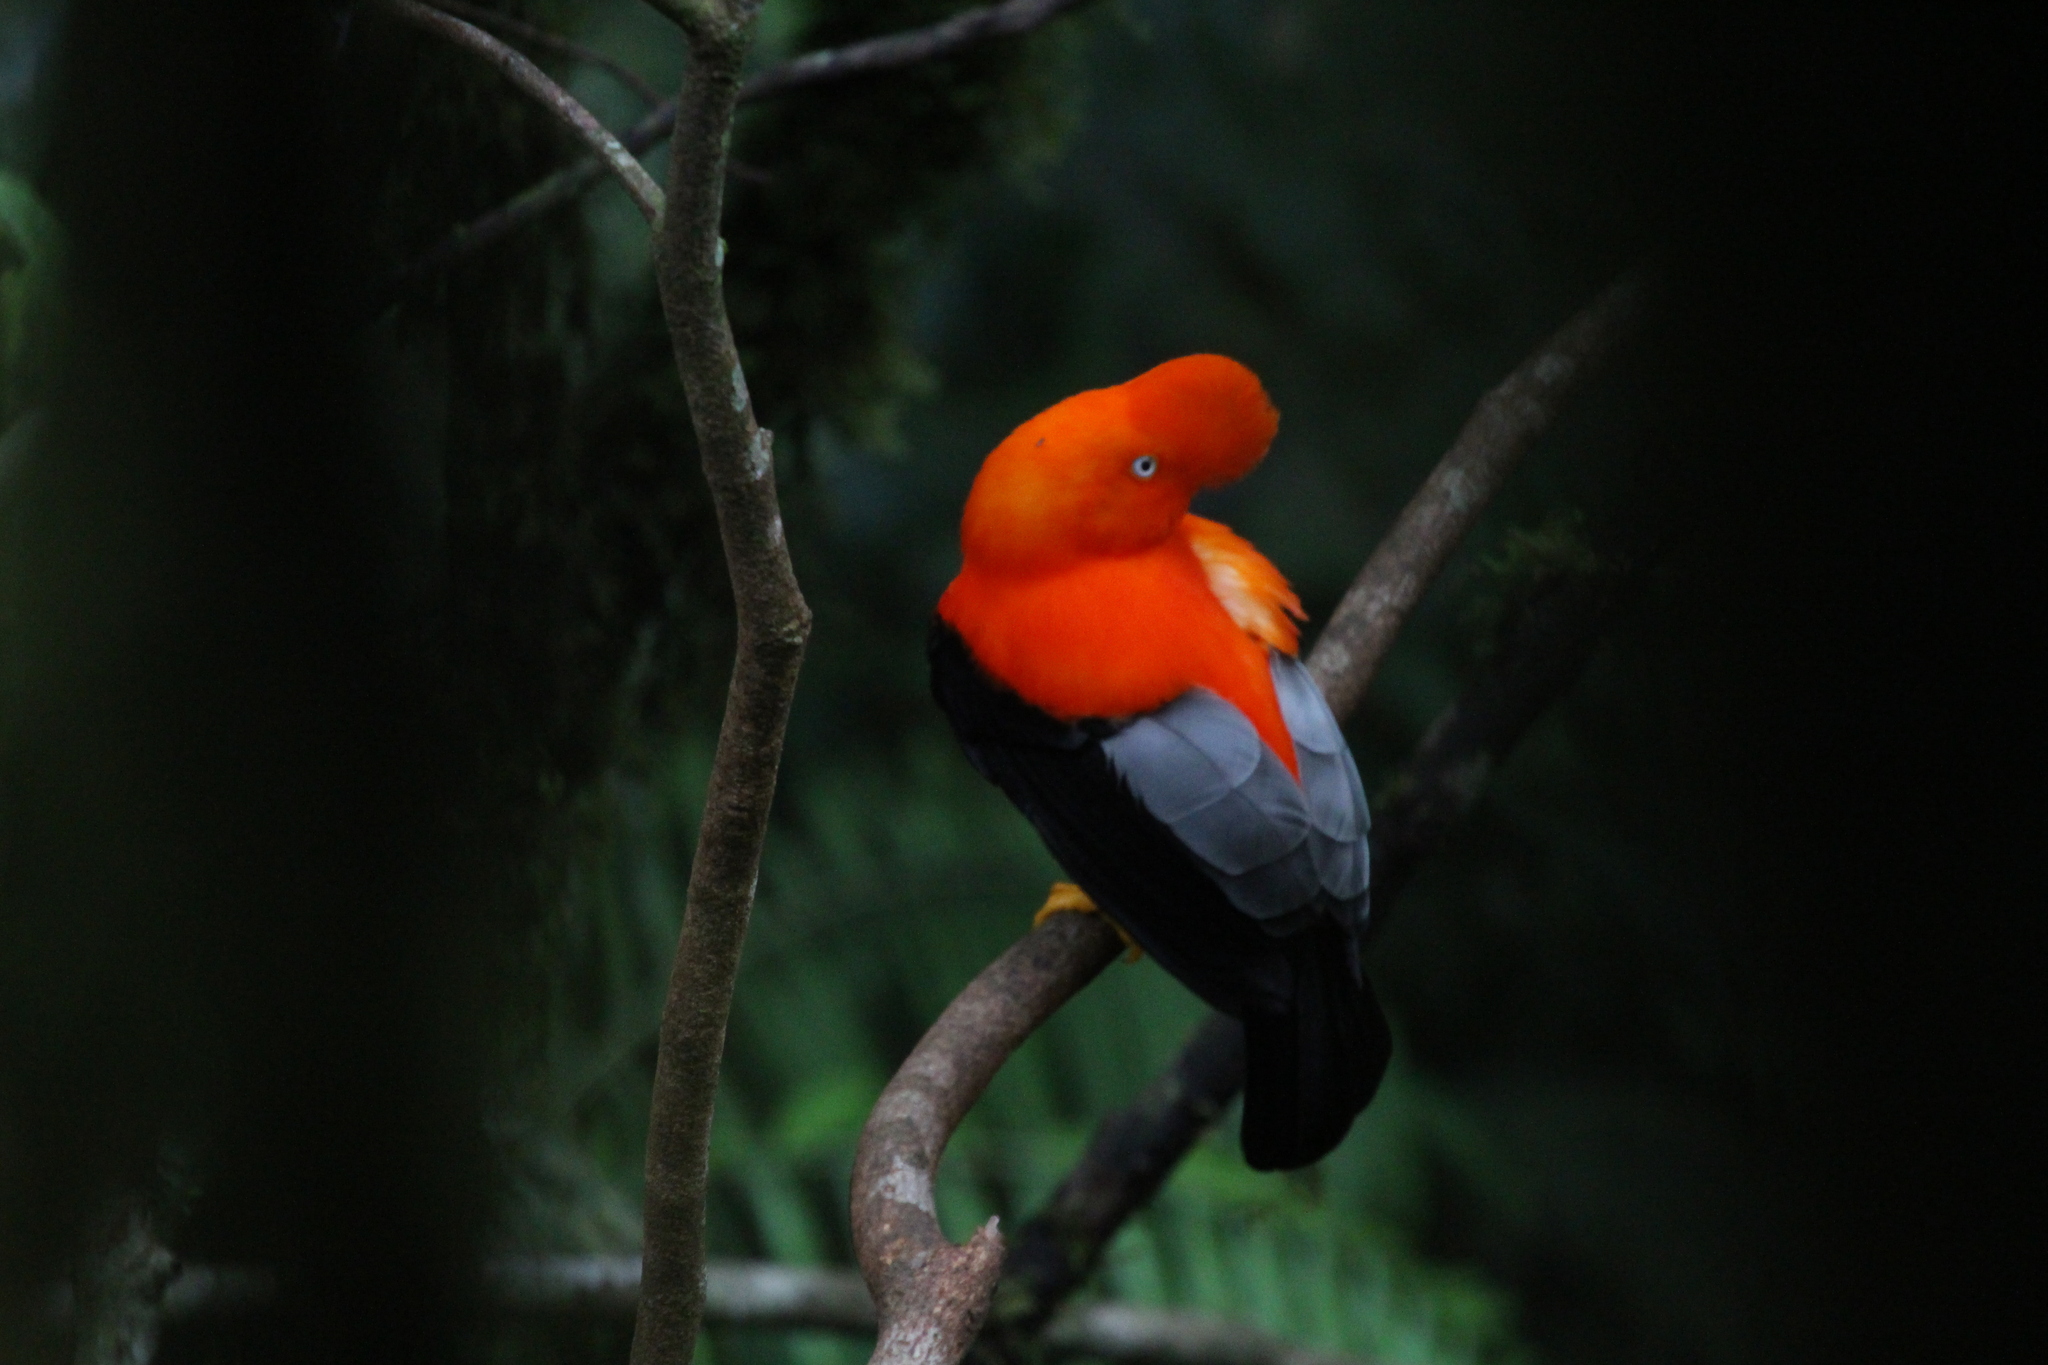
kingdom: Animalia
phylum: Chordata
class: Aves
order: Passeriformes
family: Cotingidae
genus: Rupicola
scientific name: Rupicola peruvianus
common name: Andean cock-of-the-rock
